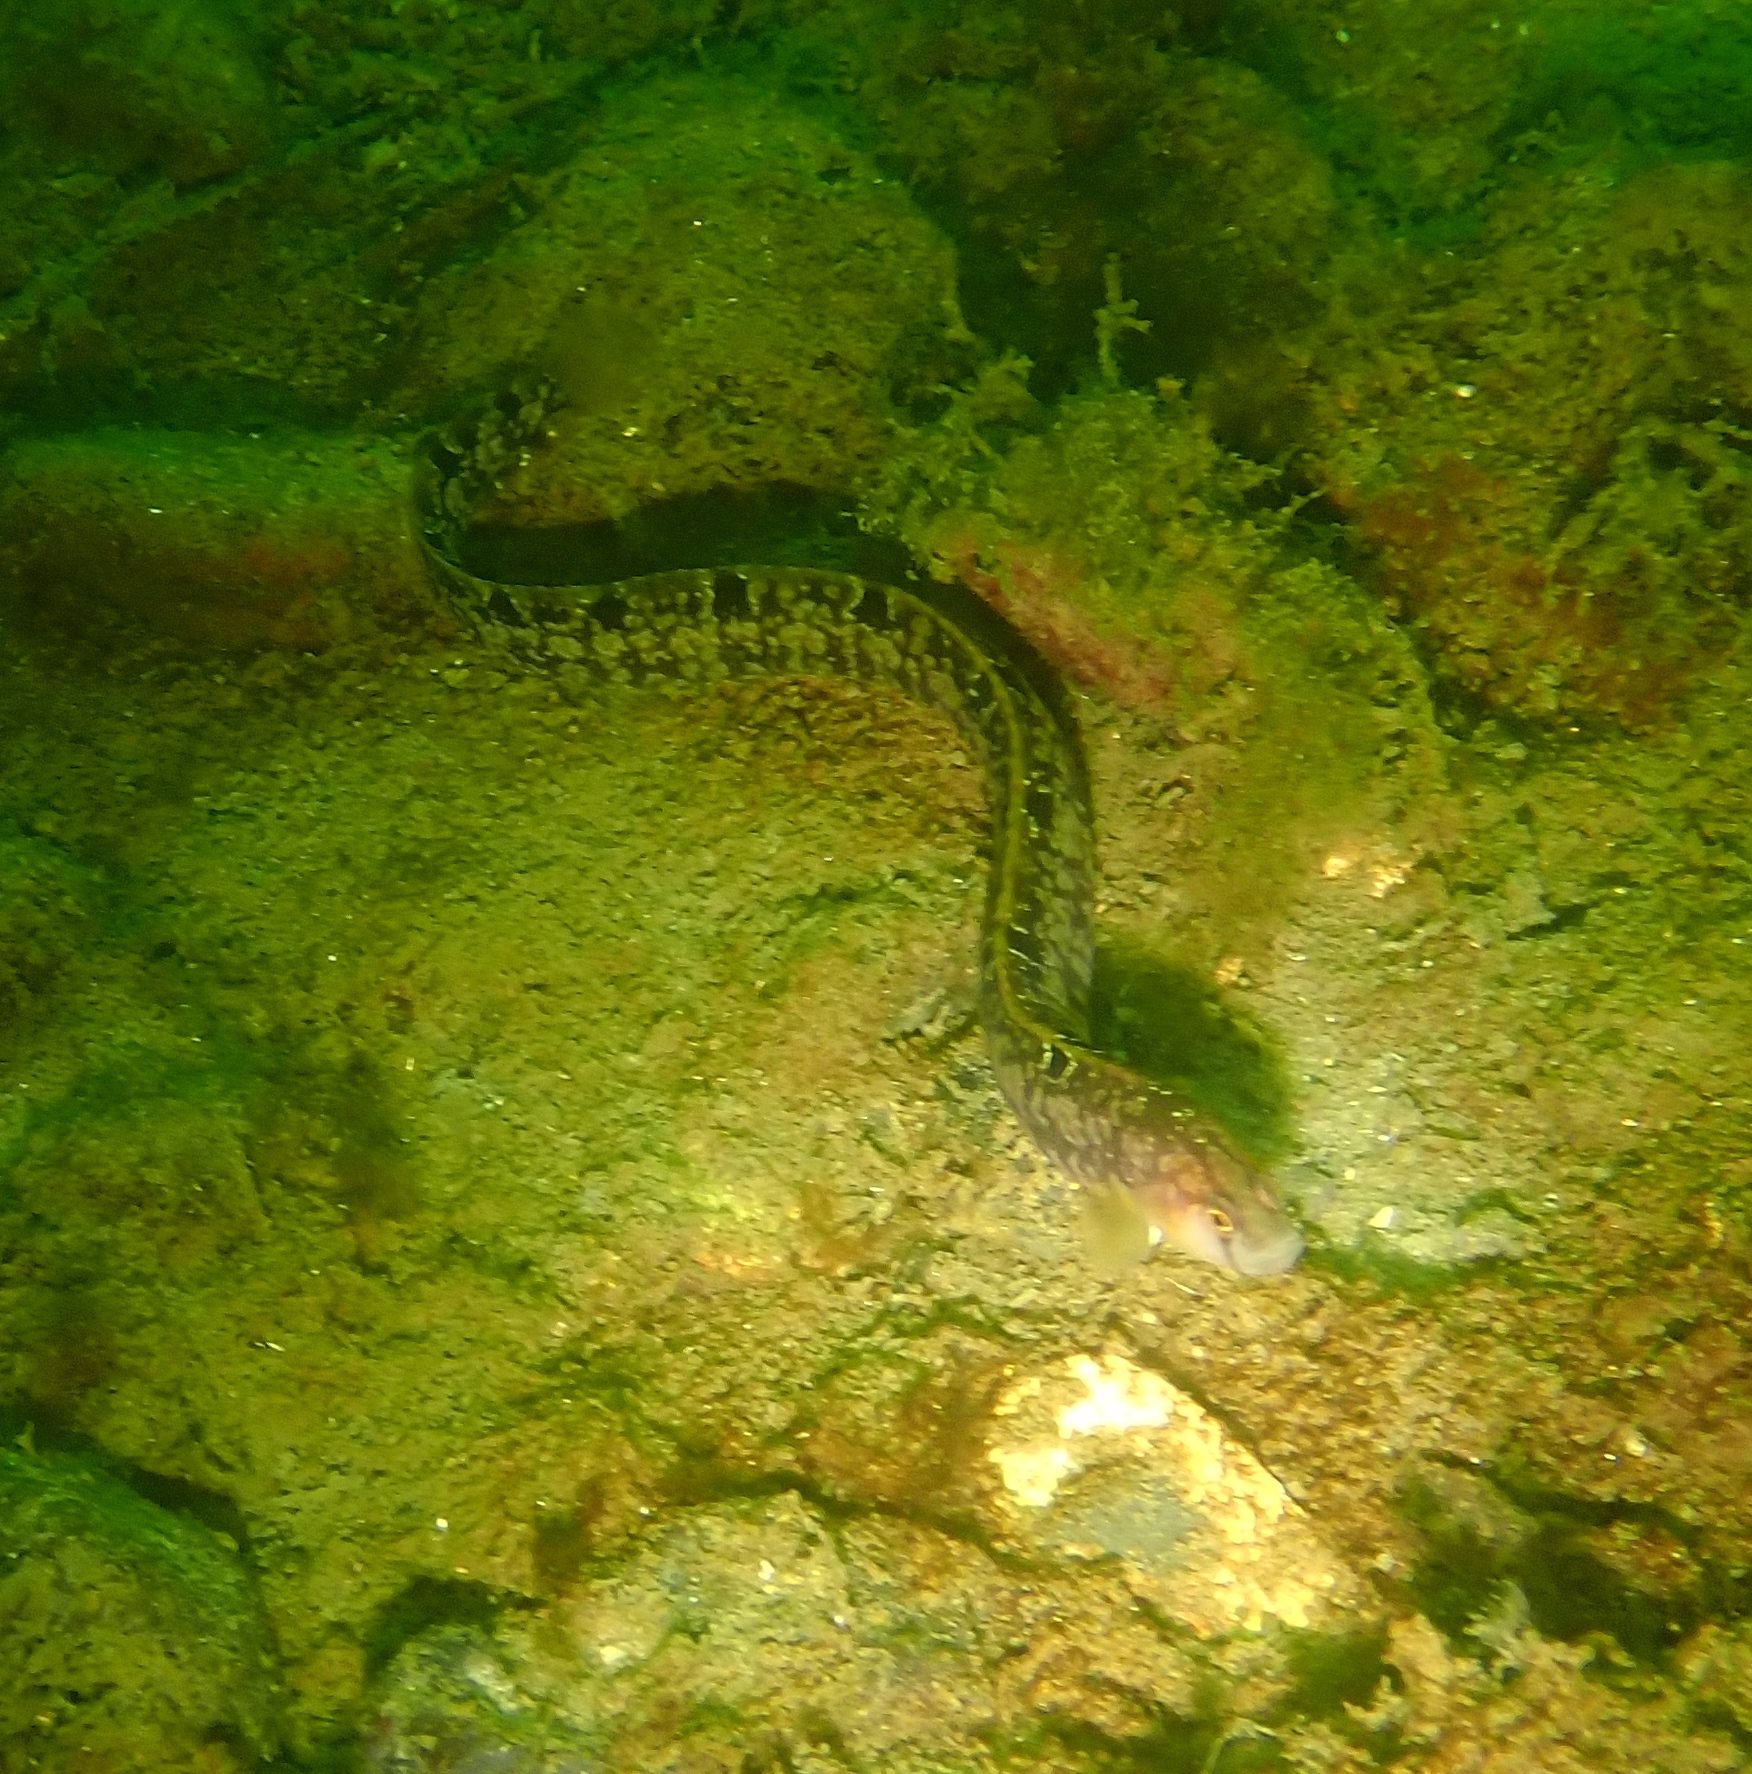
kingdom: Animalia
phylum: Chordata
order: Perciformes
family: Pholidae
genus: Pholis
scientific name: Pholis gunnellus
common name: Butterfish
